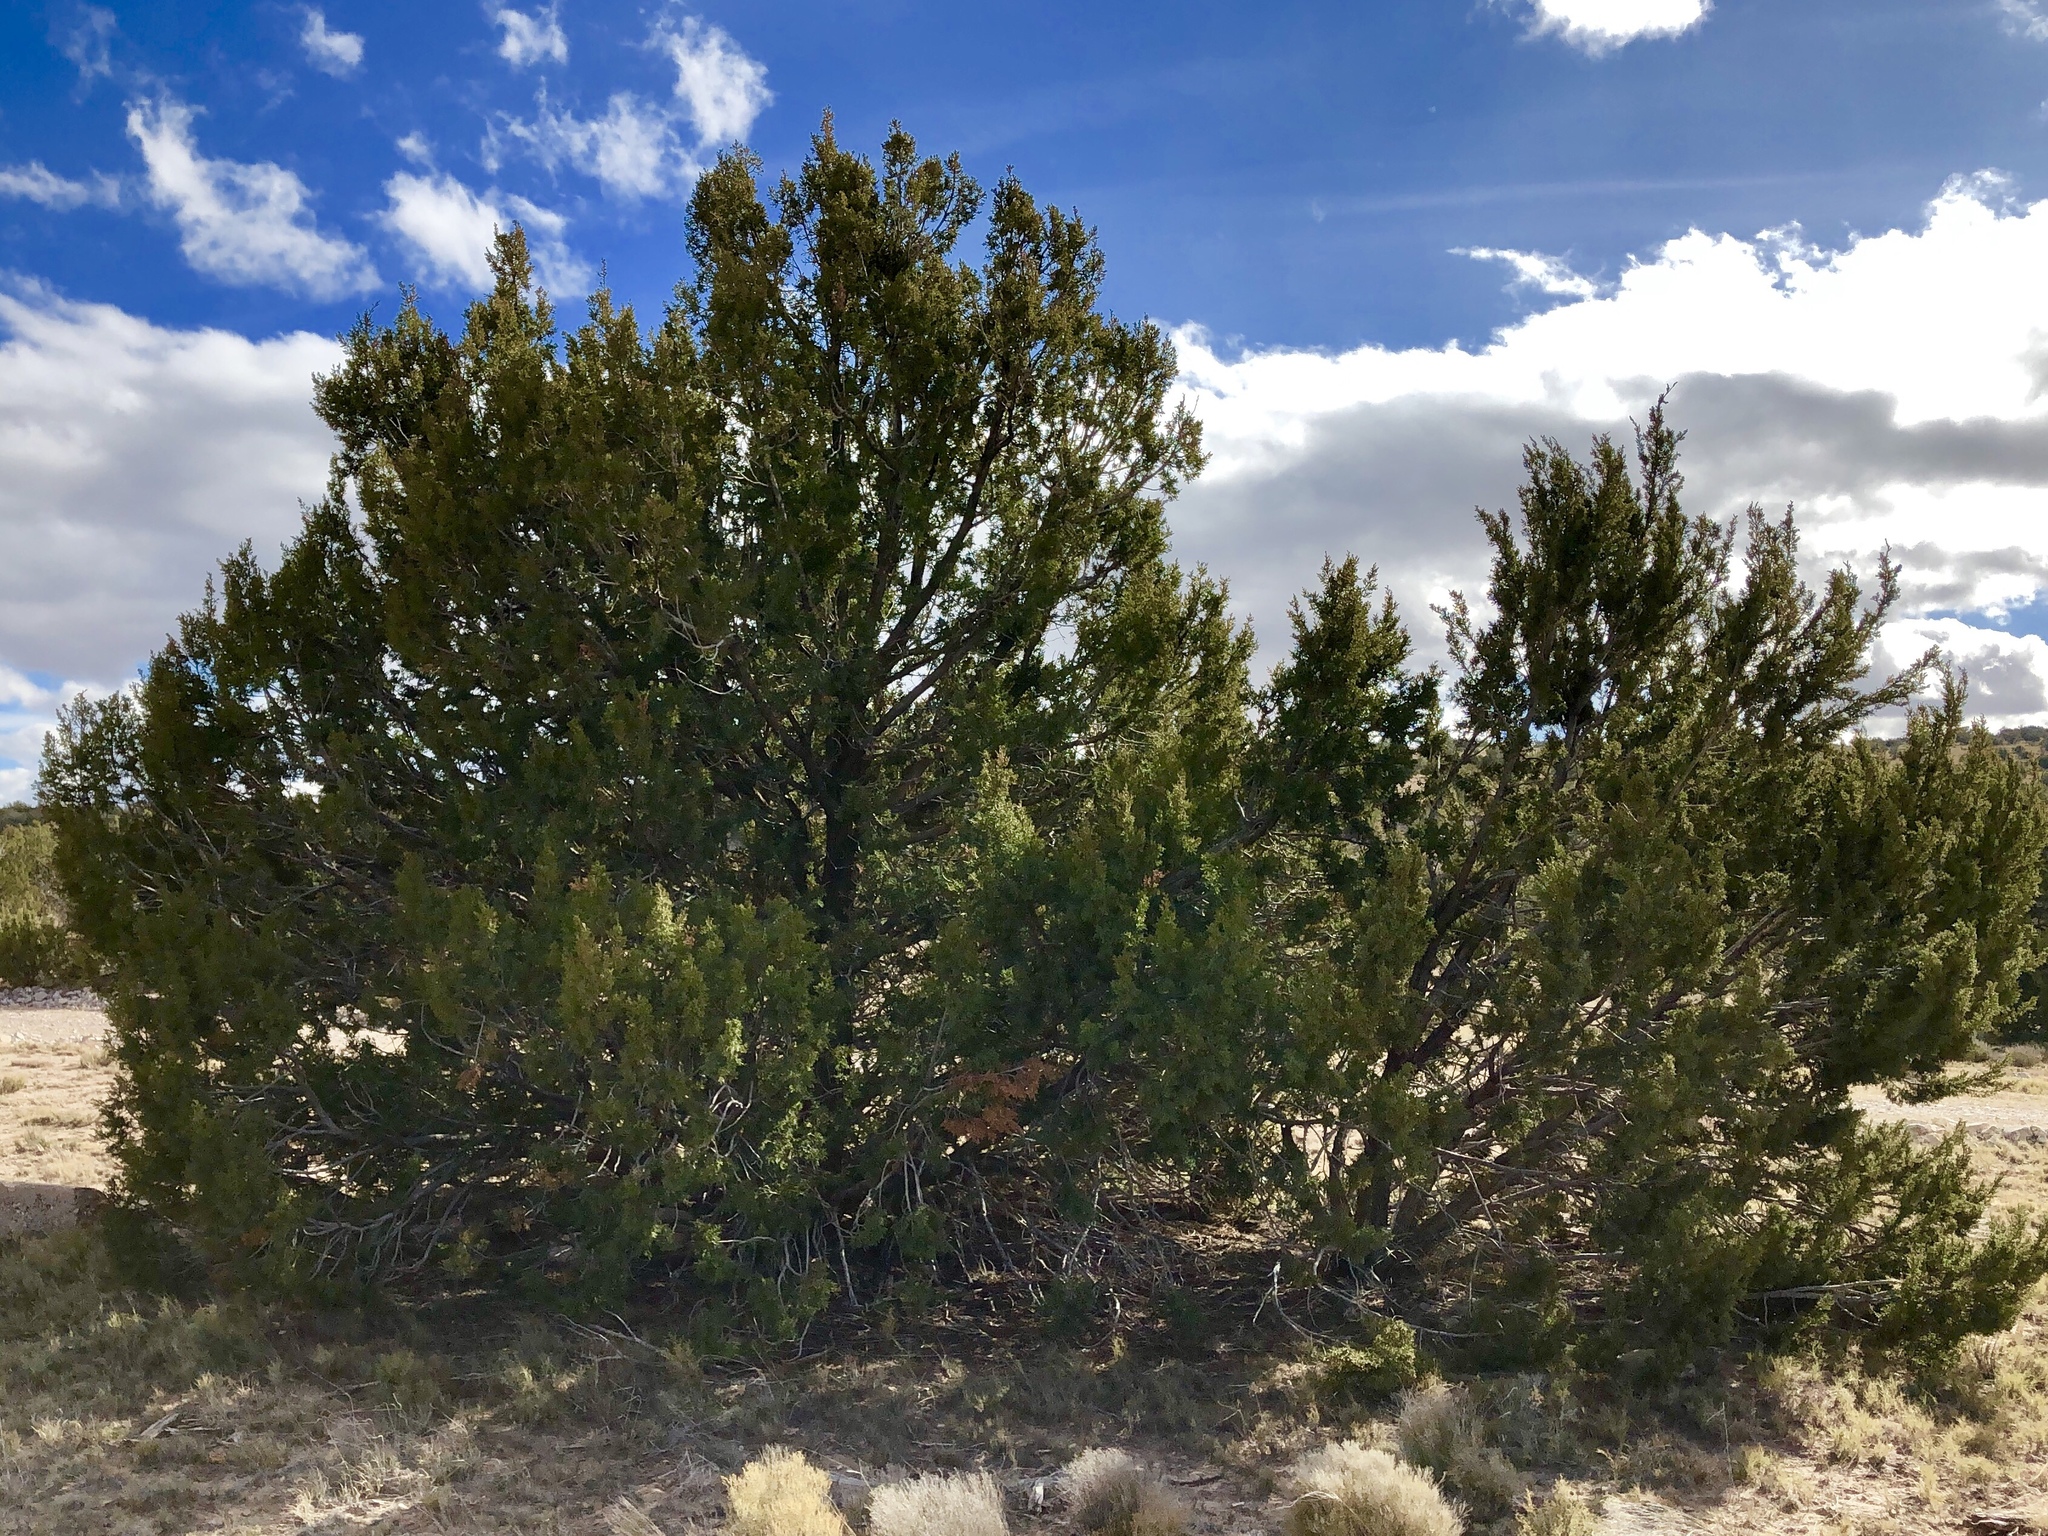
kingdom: Plantae
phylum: Tracheophyta
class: Pinopsida
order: Pinales
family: Cupressaceae
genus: Juniperus
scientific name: Juniperus monosperma
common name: One-seed juniper
